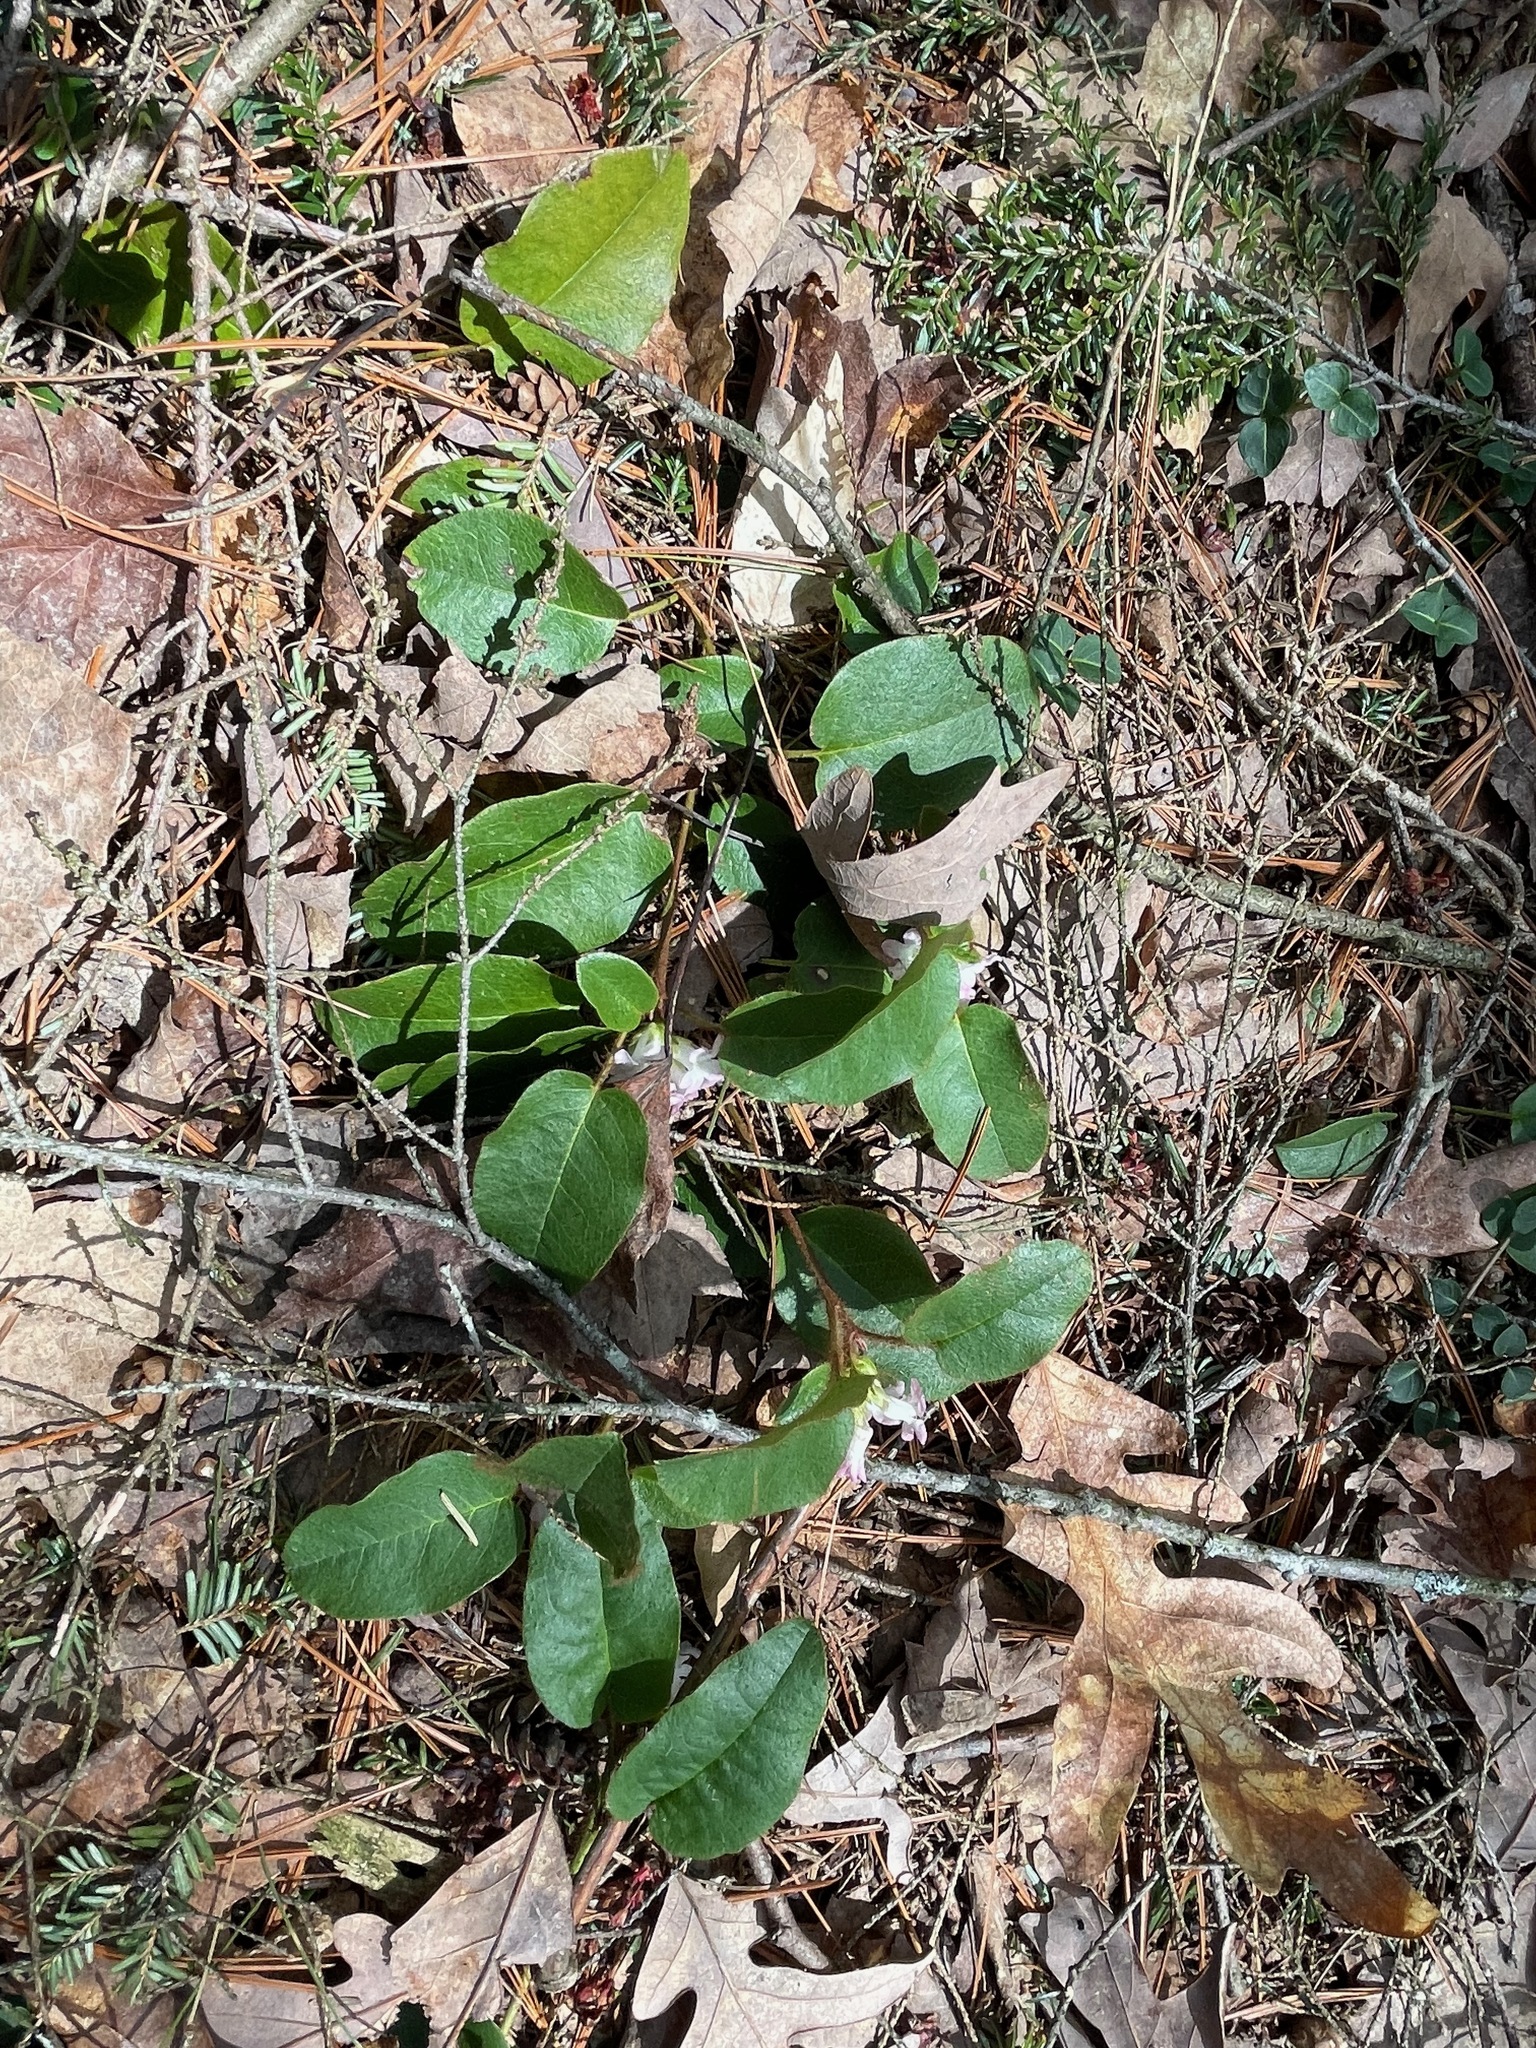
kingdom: Plantae
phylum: Tracheophyta
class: Magnoliopsida
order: Ericales
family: Ericaceae
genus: Epigaea
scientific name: Epigaea repens
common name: Gravelroot
